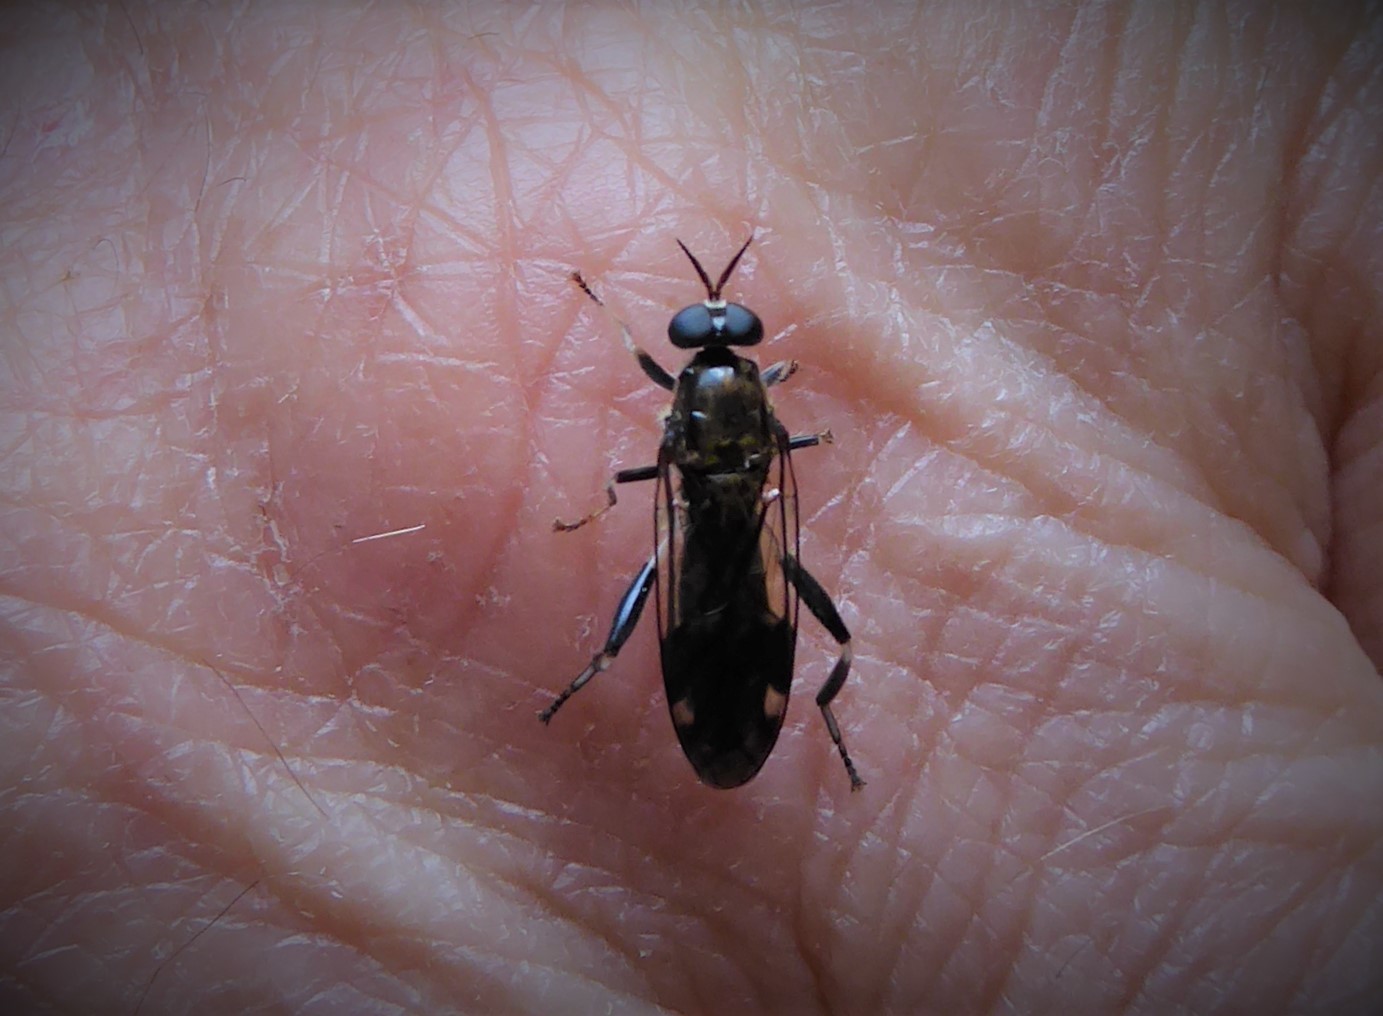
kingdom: Animalia
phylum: Arthropoda
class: Insecta
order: Diptera
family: Stratiomyidae
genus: Exaireta
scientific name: Exaireta spinigera
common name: Blue soldier fly
